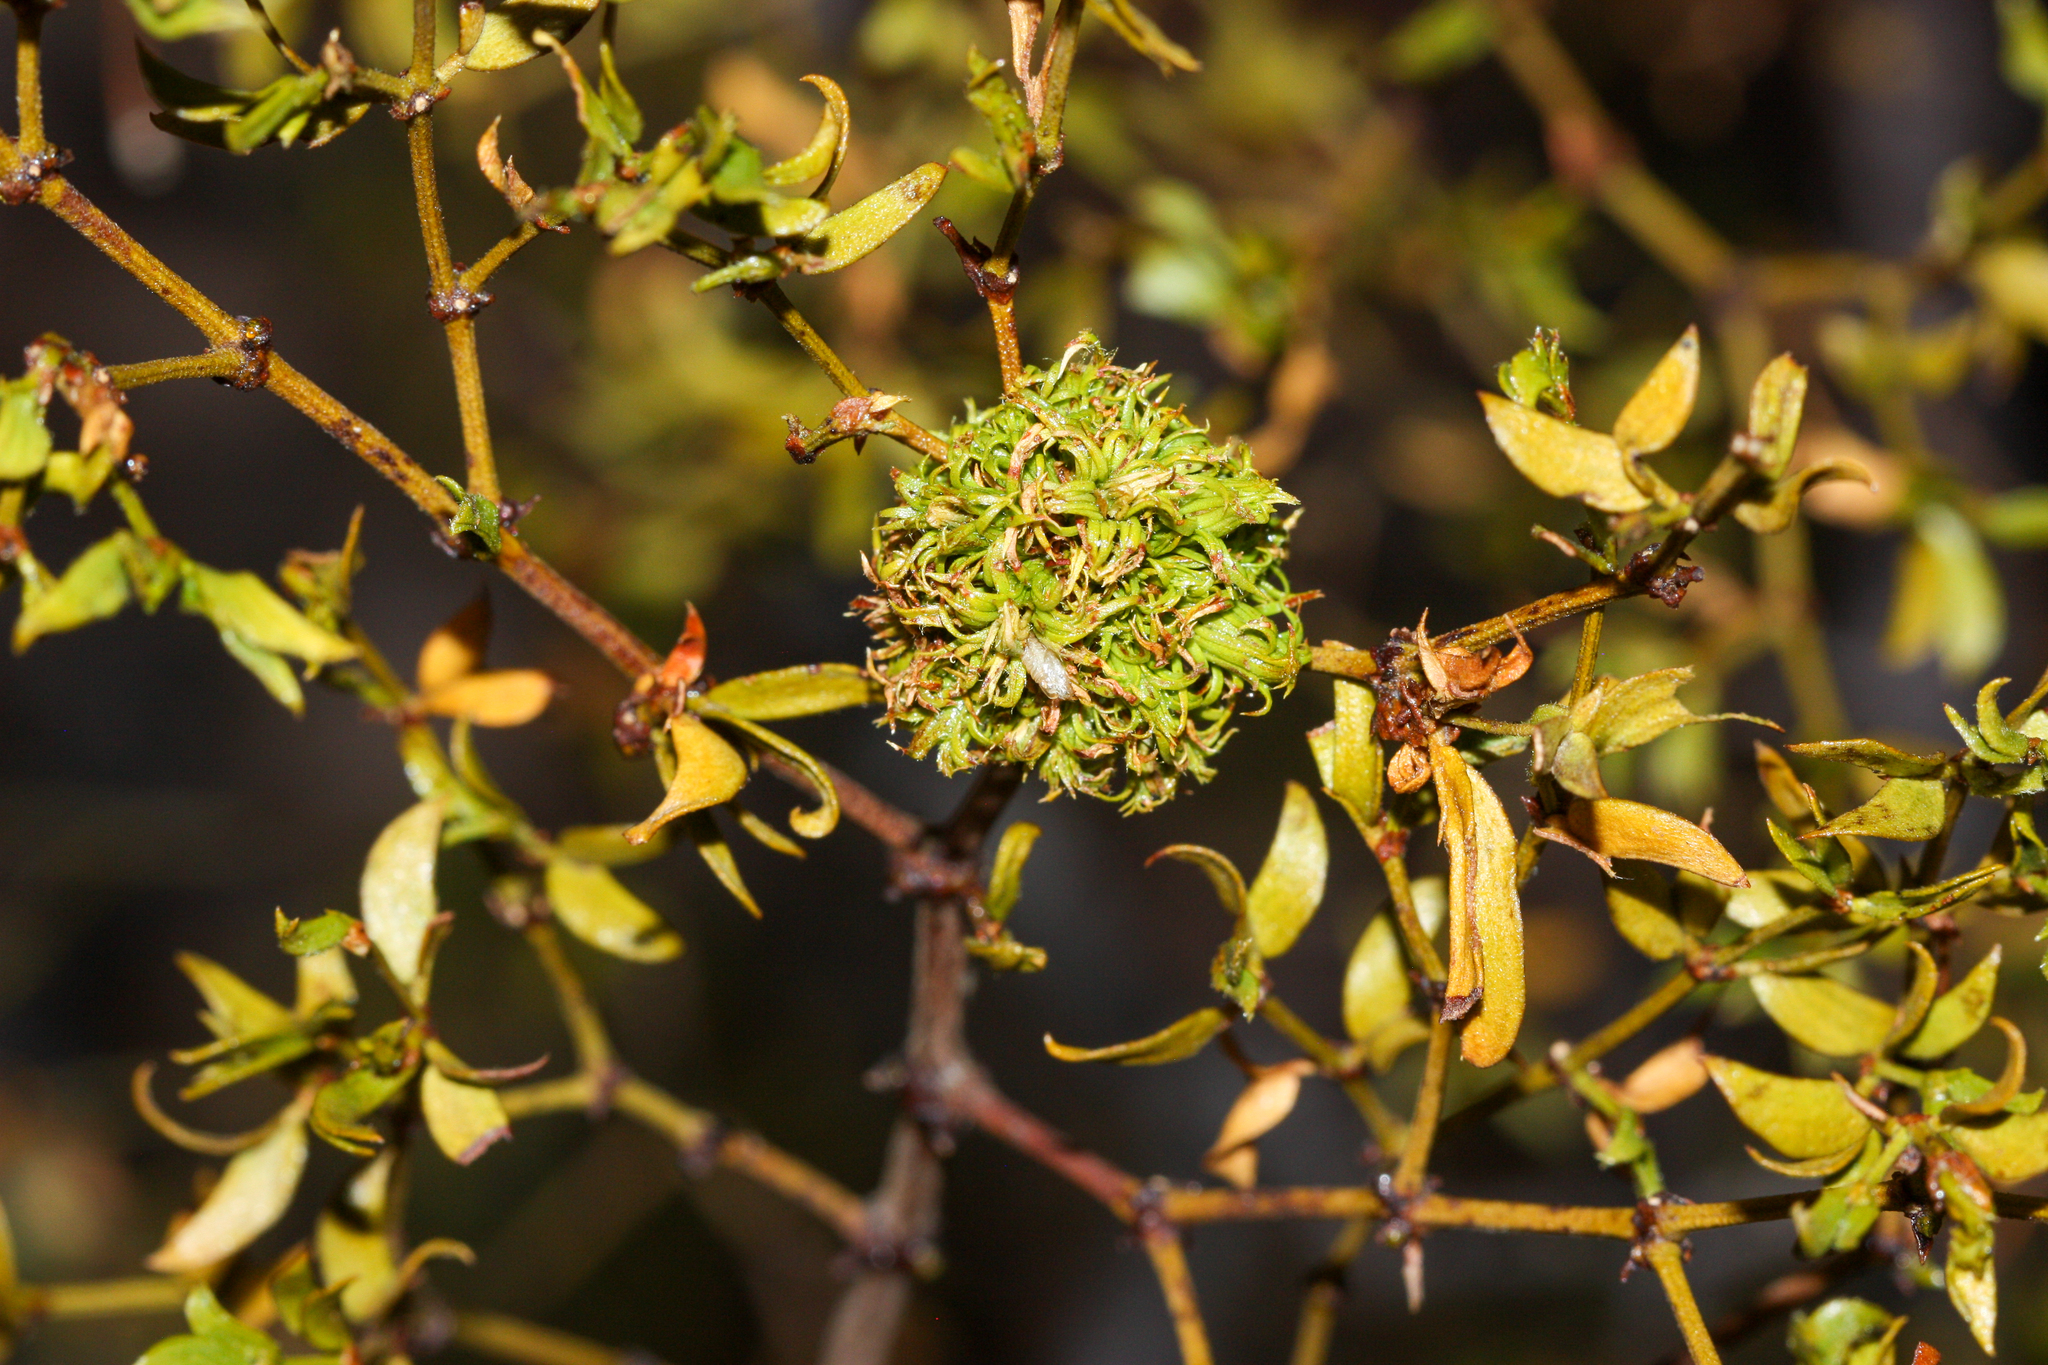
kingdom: Animalia
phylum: Arthropoda
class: Insecta
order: Diptera
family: Cecidomyiidae
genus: Asphondylia
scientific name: Asphondylia auripila
